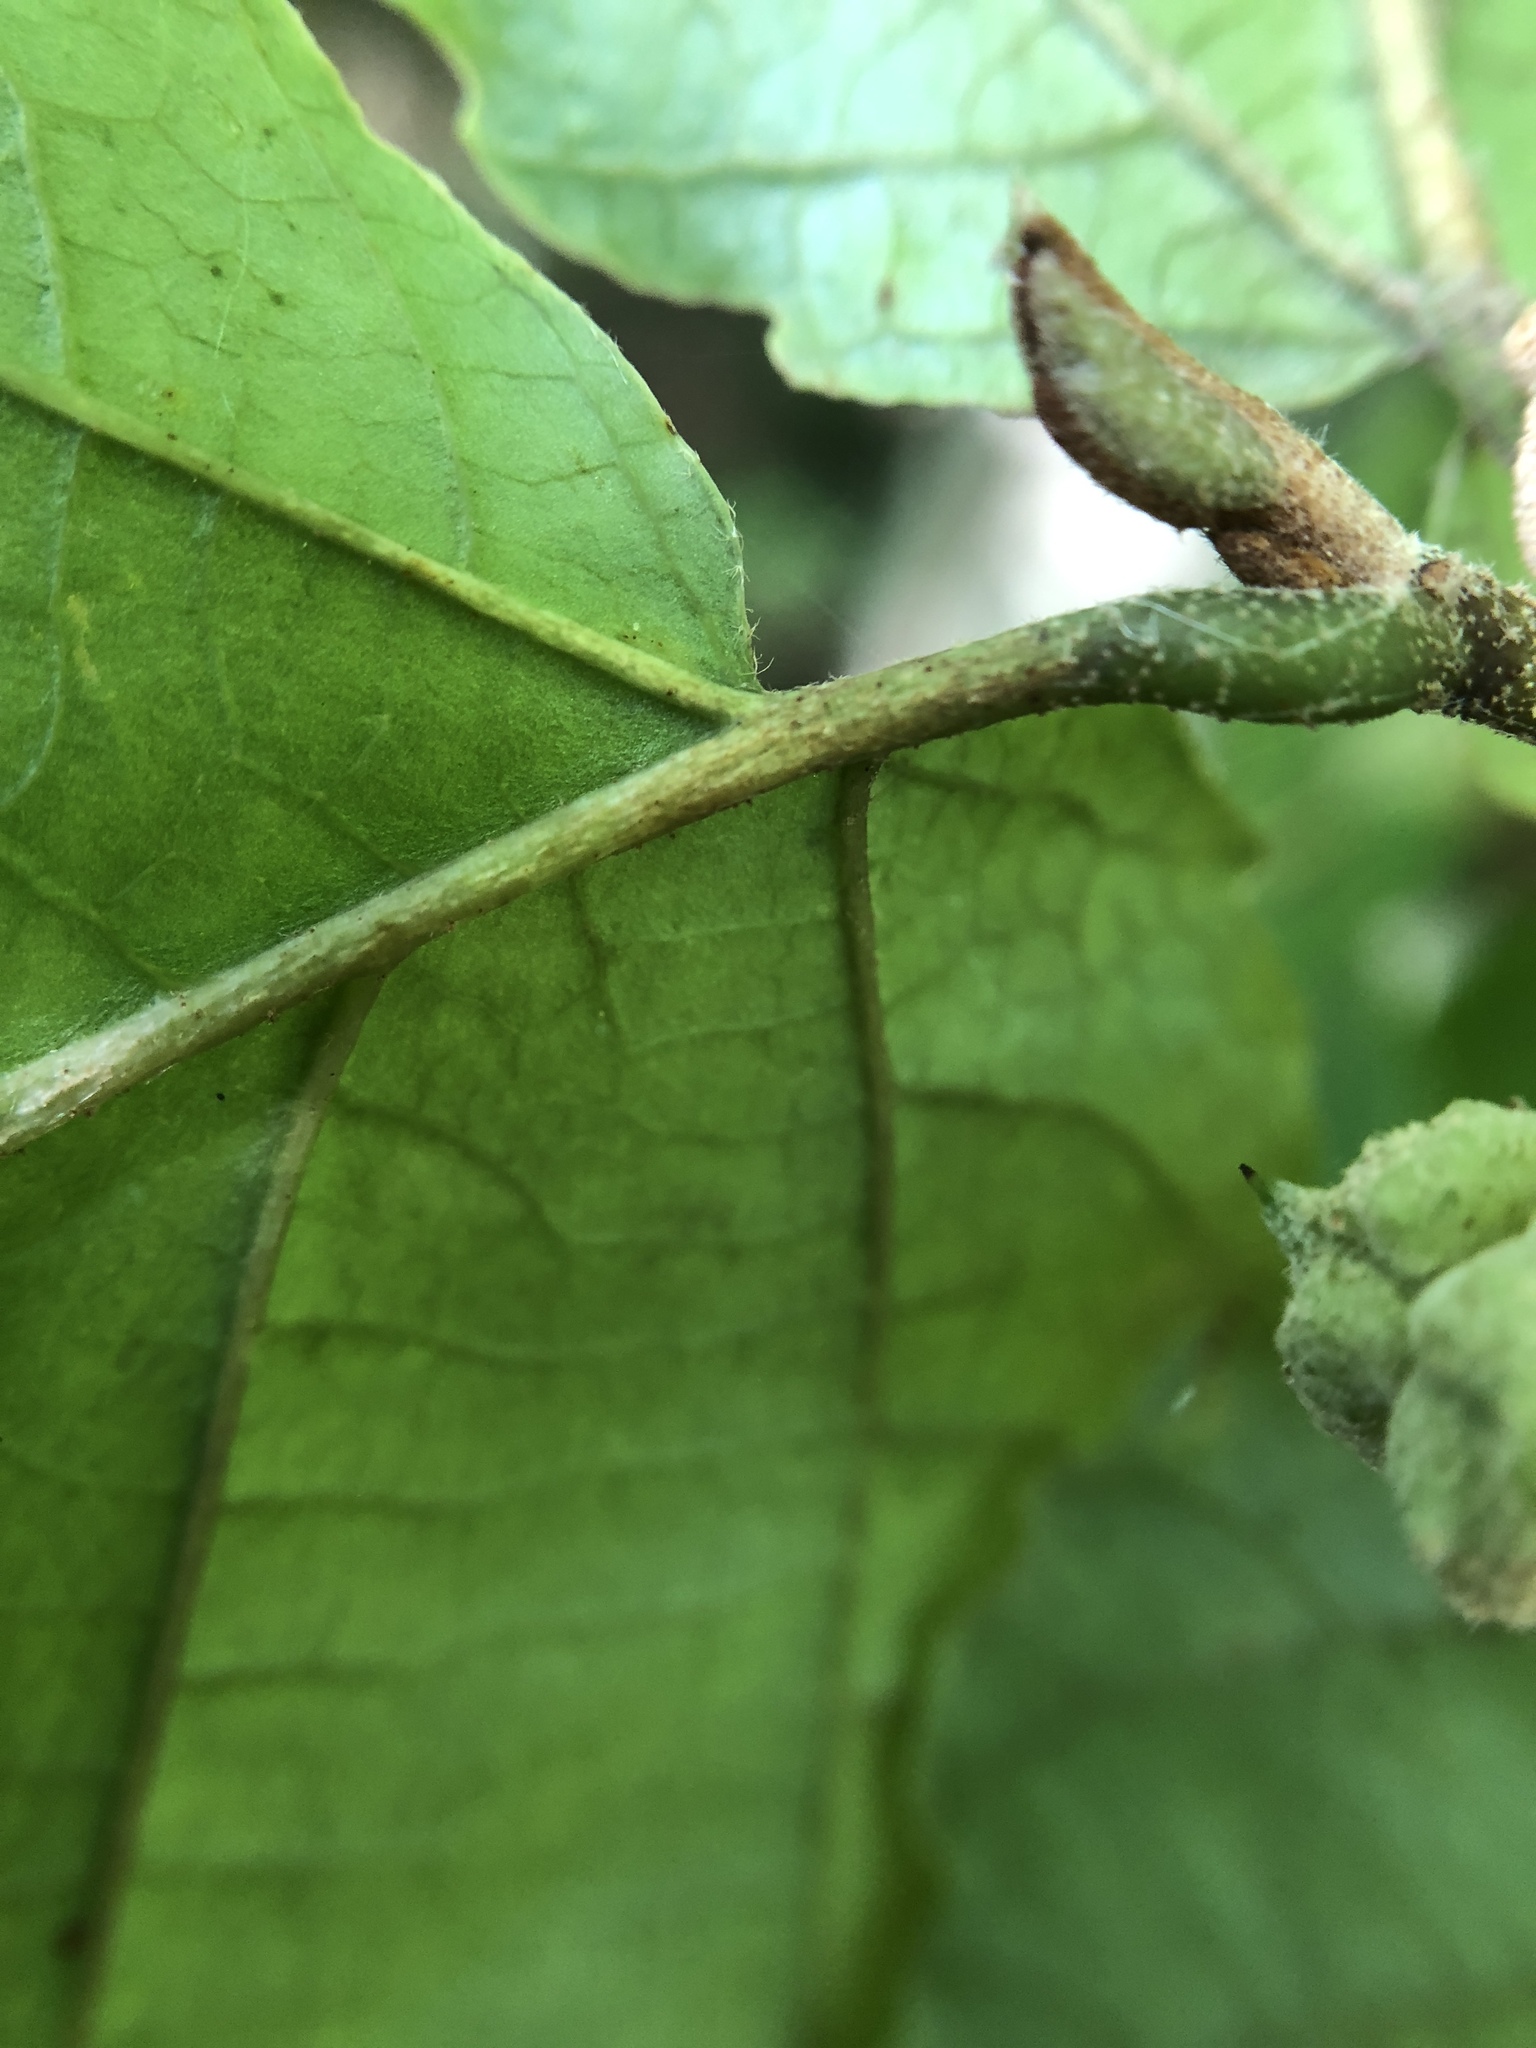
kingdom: Plantae
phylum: Tracheophyta
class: Magnoliopsida
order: Saxifragales
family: Hamamelidaceae
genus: Hamamelis
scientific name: Hamamelis virginiana
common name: Witch-hazel
